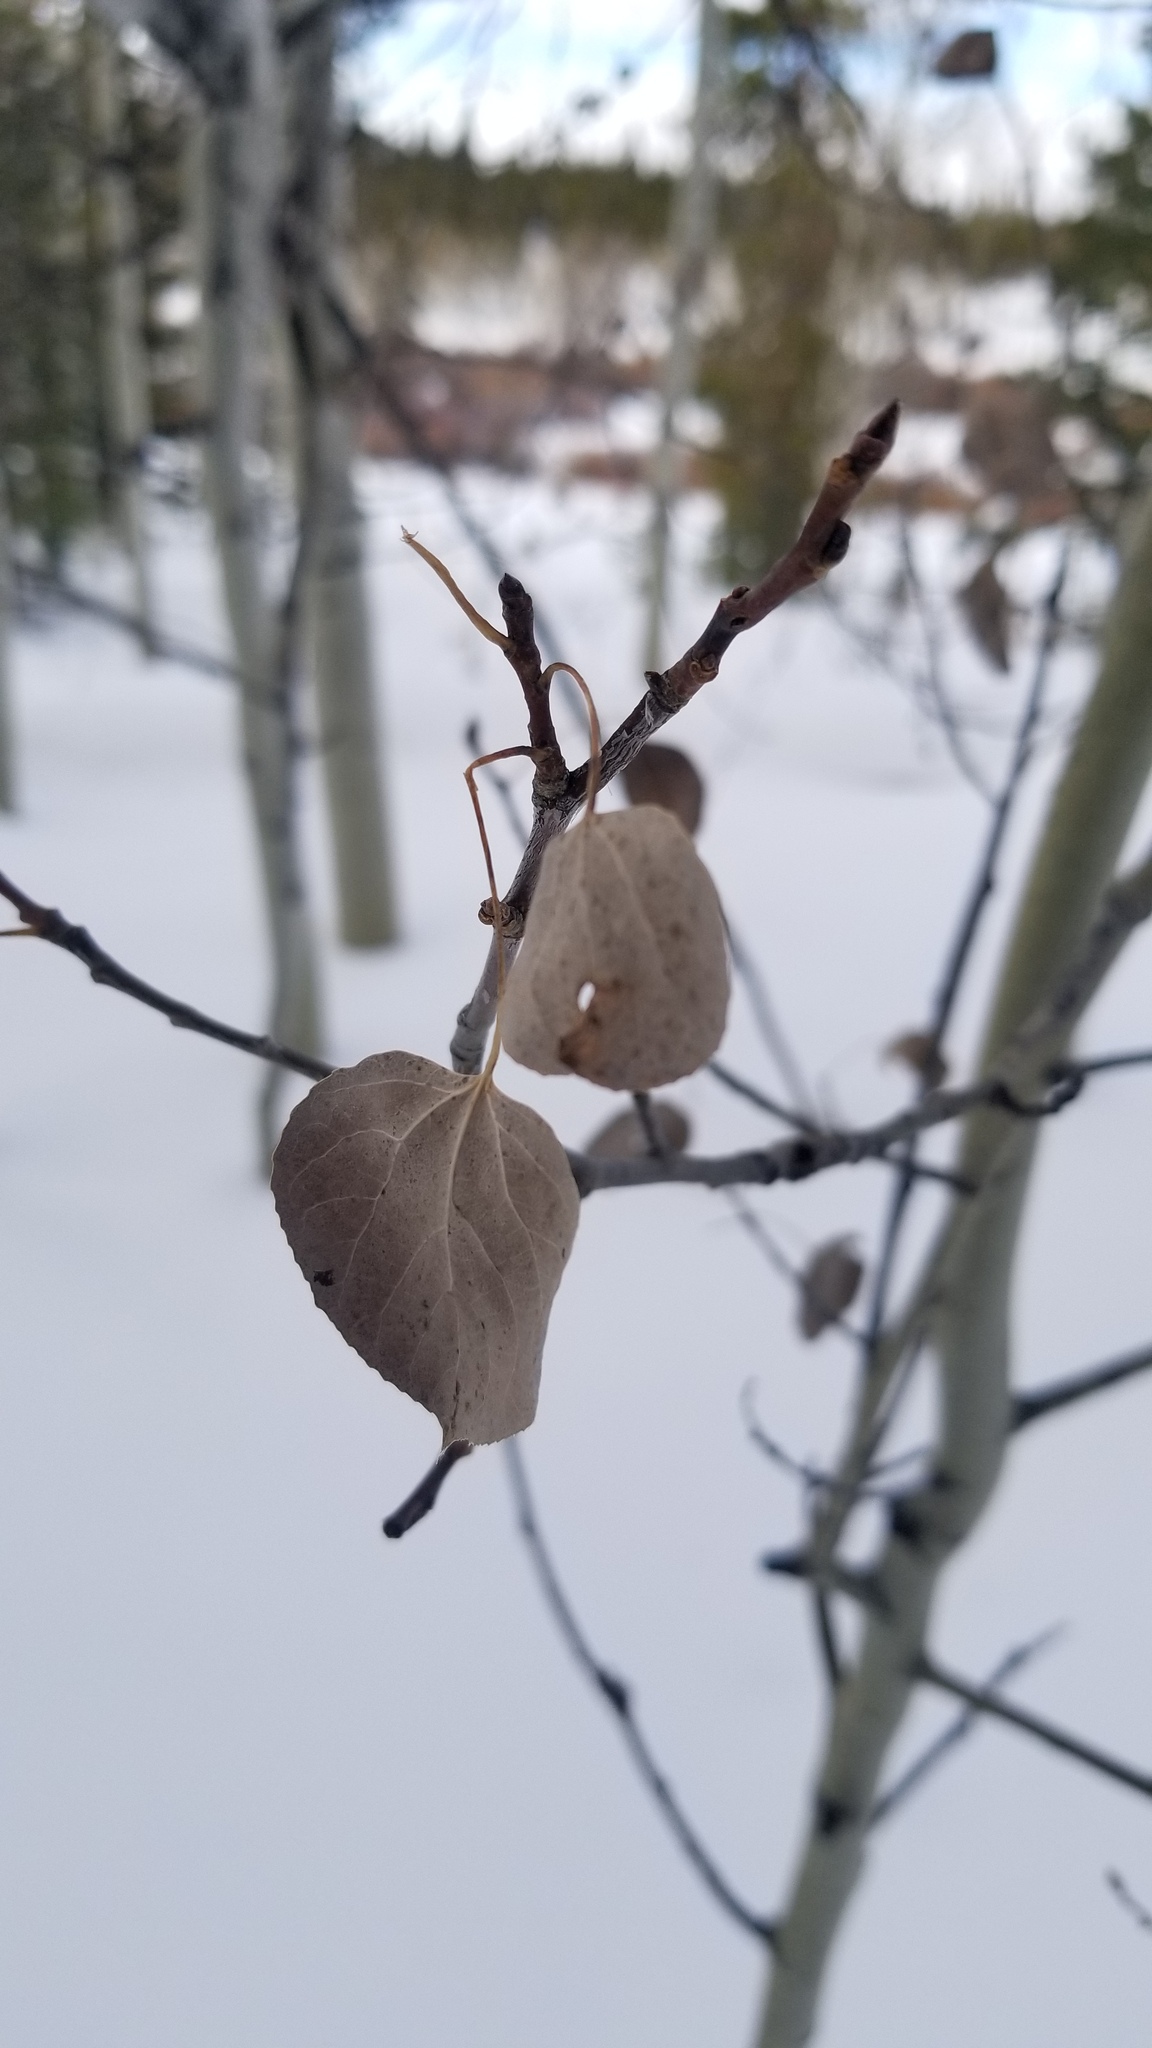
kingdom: Plantae
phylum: Tracheophyta
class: Magnoliopsida
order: Malpighiales
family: Salicaceae
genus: Populus
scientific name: Populus tremuloides
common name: Quaking aspen
